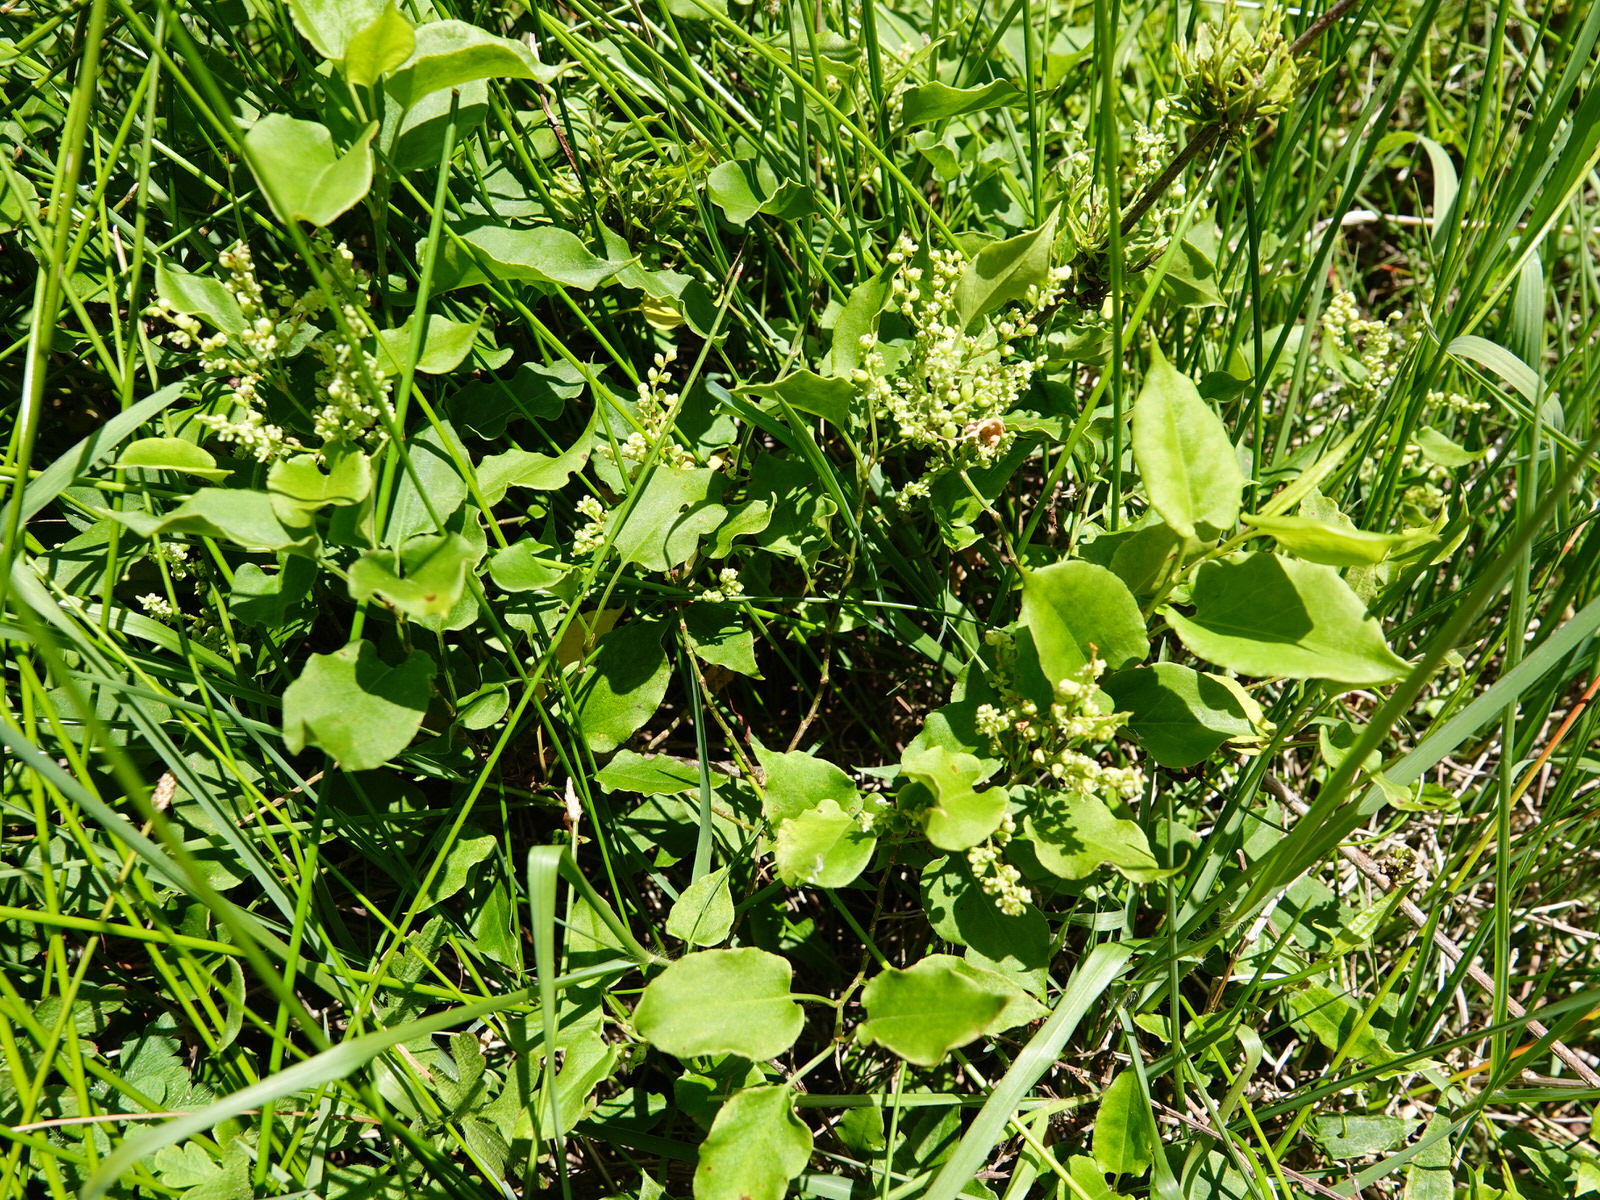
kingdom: Plantae
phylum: Tracheophyta
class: Magnoliopsida
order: Caryophyllales
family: Polygonaceae
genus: Muehlenbeckia
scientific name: Muehlenbeckia australis
